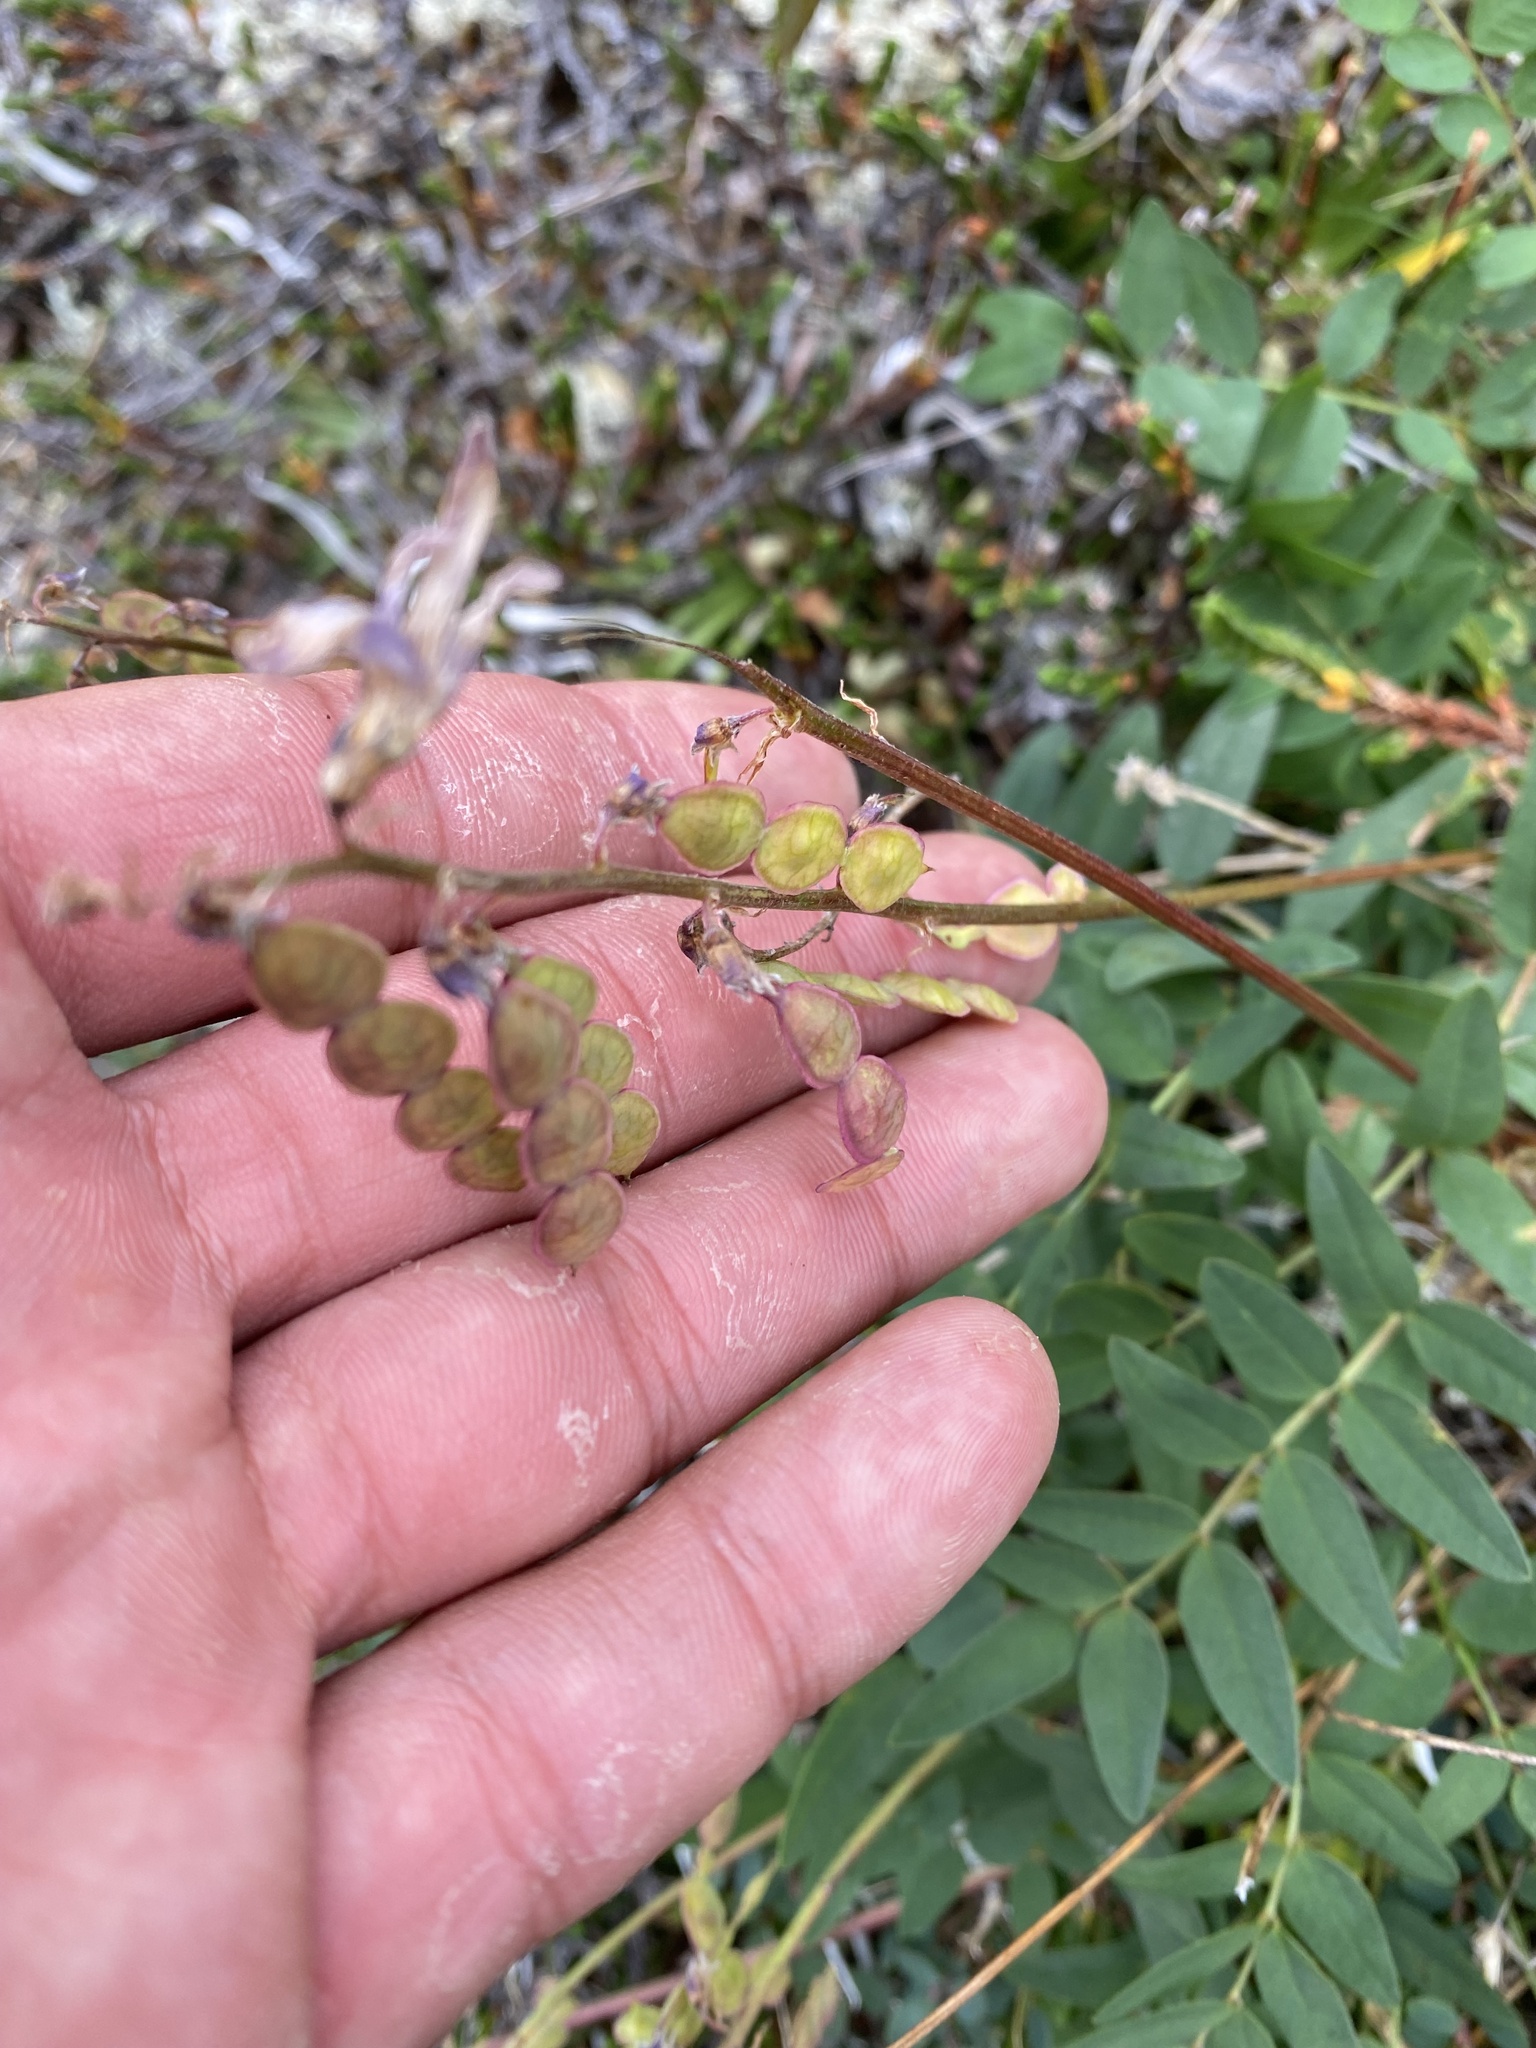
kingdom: Plantae
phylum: Tracheophyta
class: Magnoliopsida
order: Fabales
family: Fabaceae
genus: Hedysarum
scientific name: Hedysarum hedysaroides
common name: Alpine french-honeysuckle
